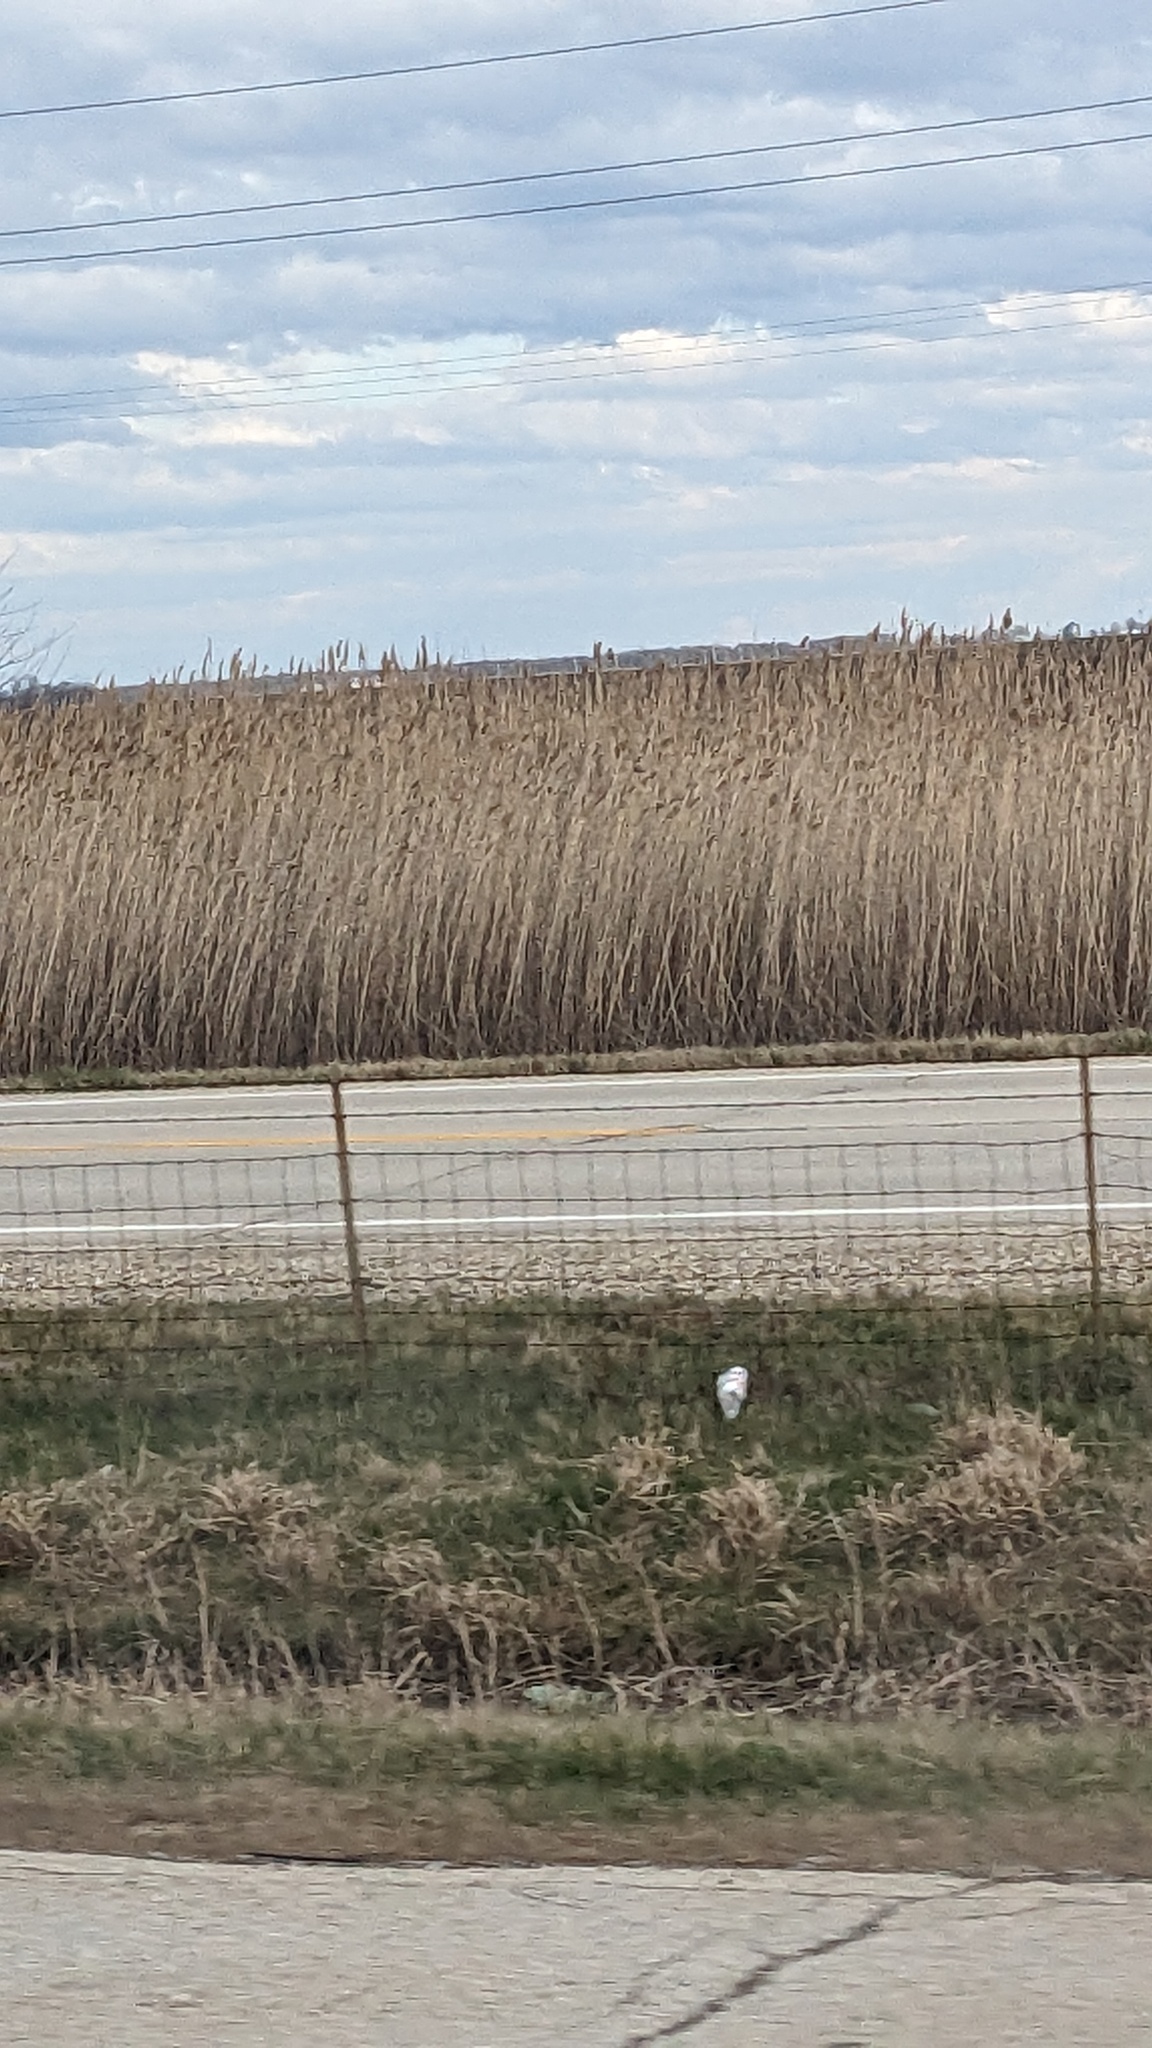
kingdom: Plantae
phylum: Tracheophyta
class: Liliopsida
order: Poales
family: Poaceae
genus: Phragmites
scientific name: Phragmites australis
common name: Common reed
